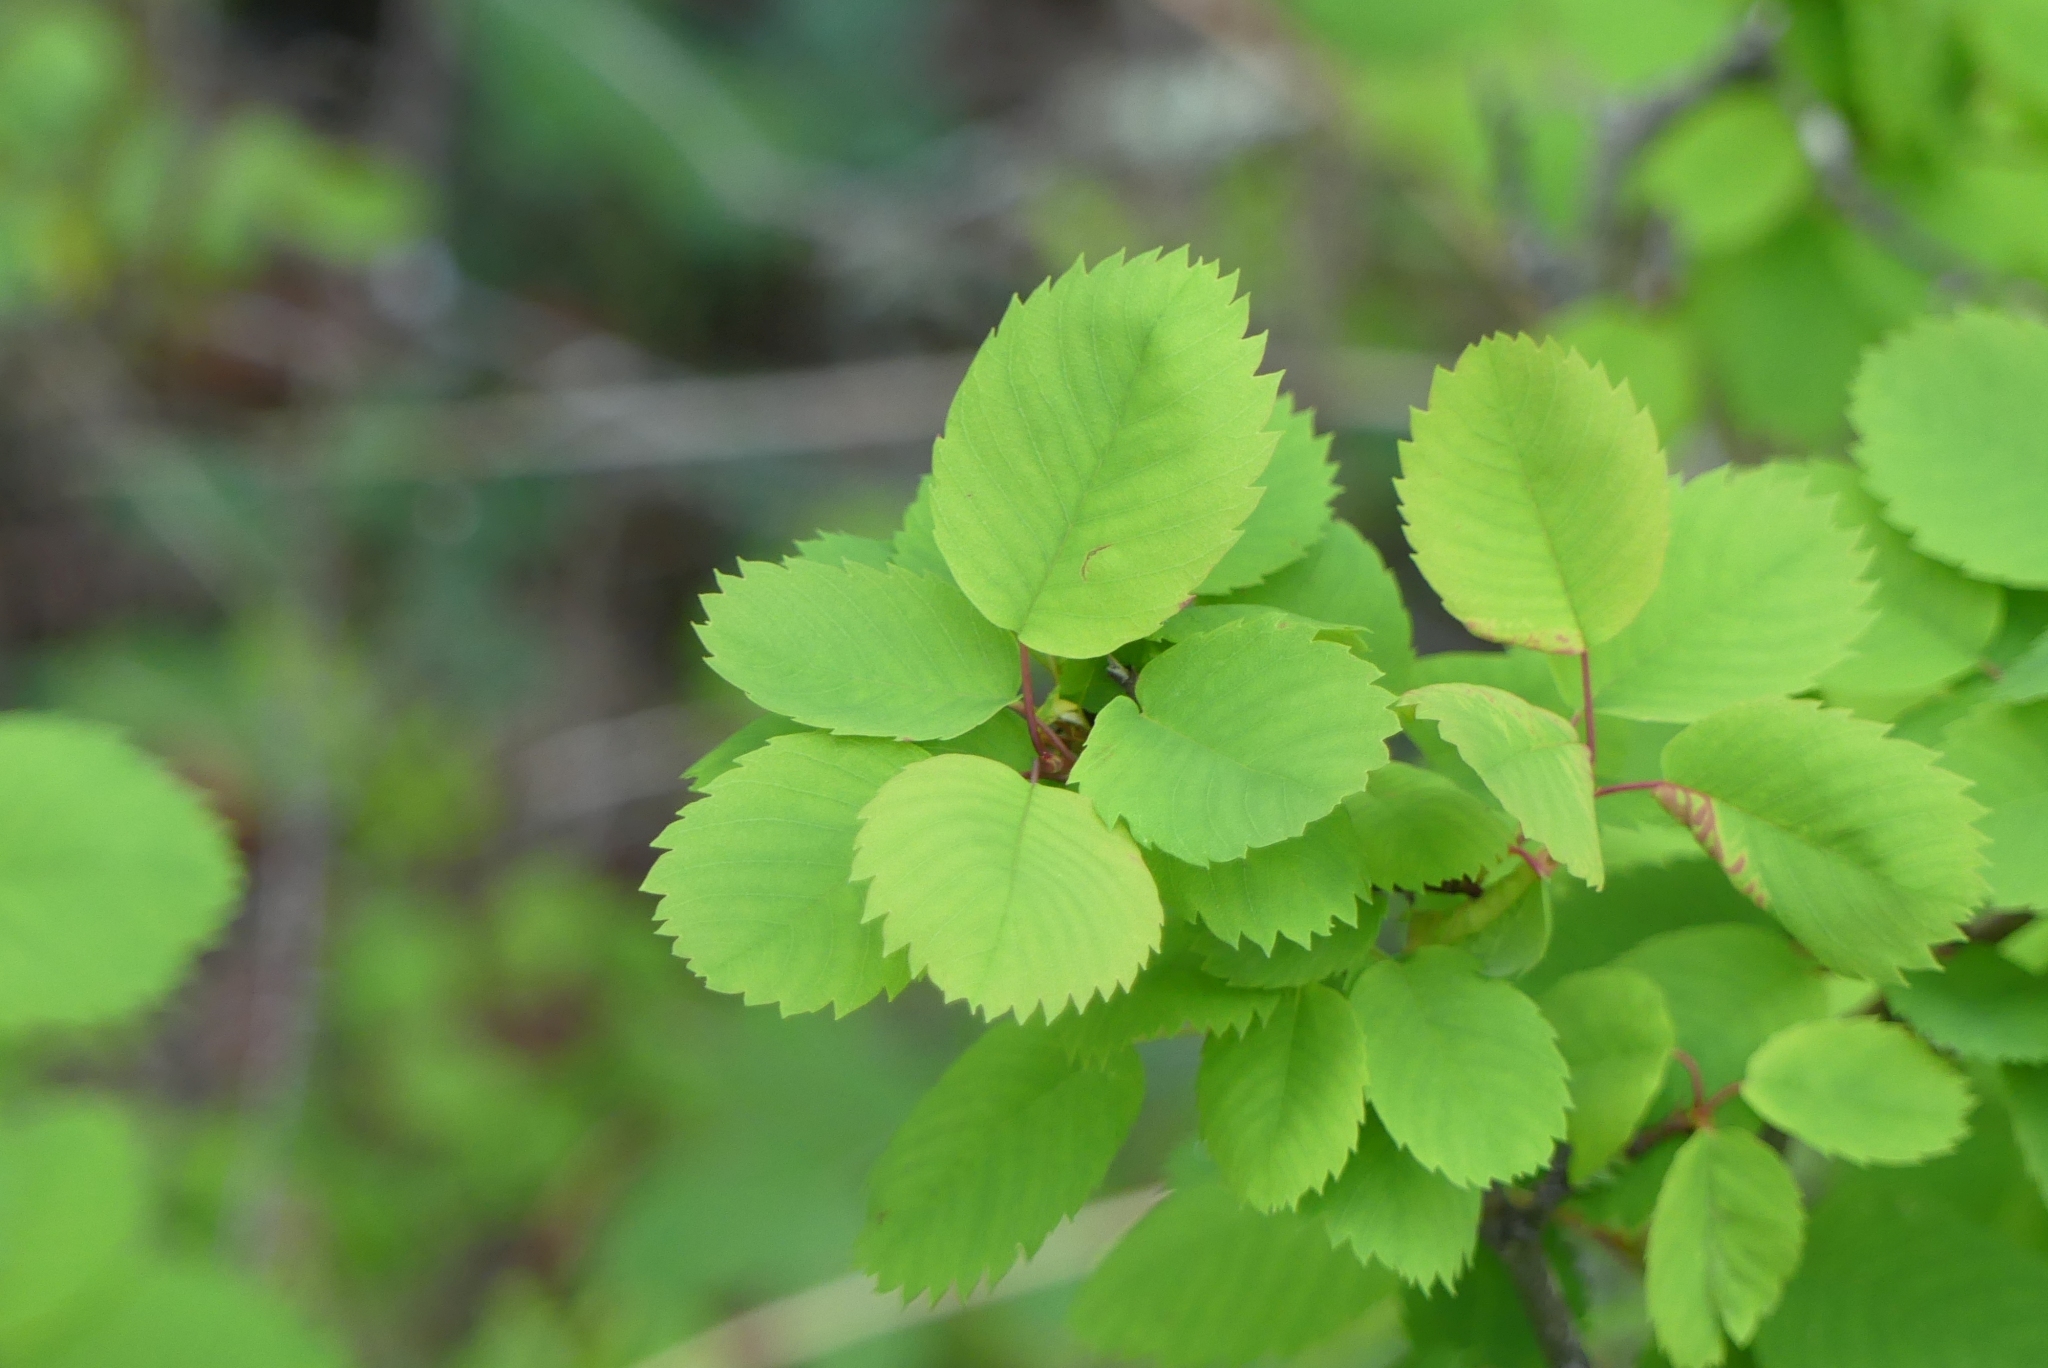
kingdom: Plantae
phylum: Tracheophyta
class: Magnoliopsida
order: Rosales
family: Rosaceae
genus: Amelanchier
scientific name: Amelanchier alnifolia
